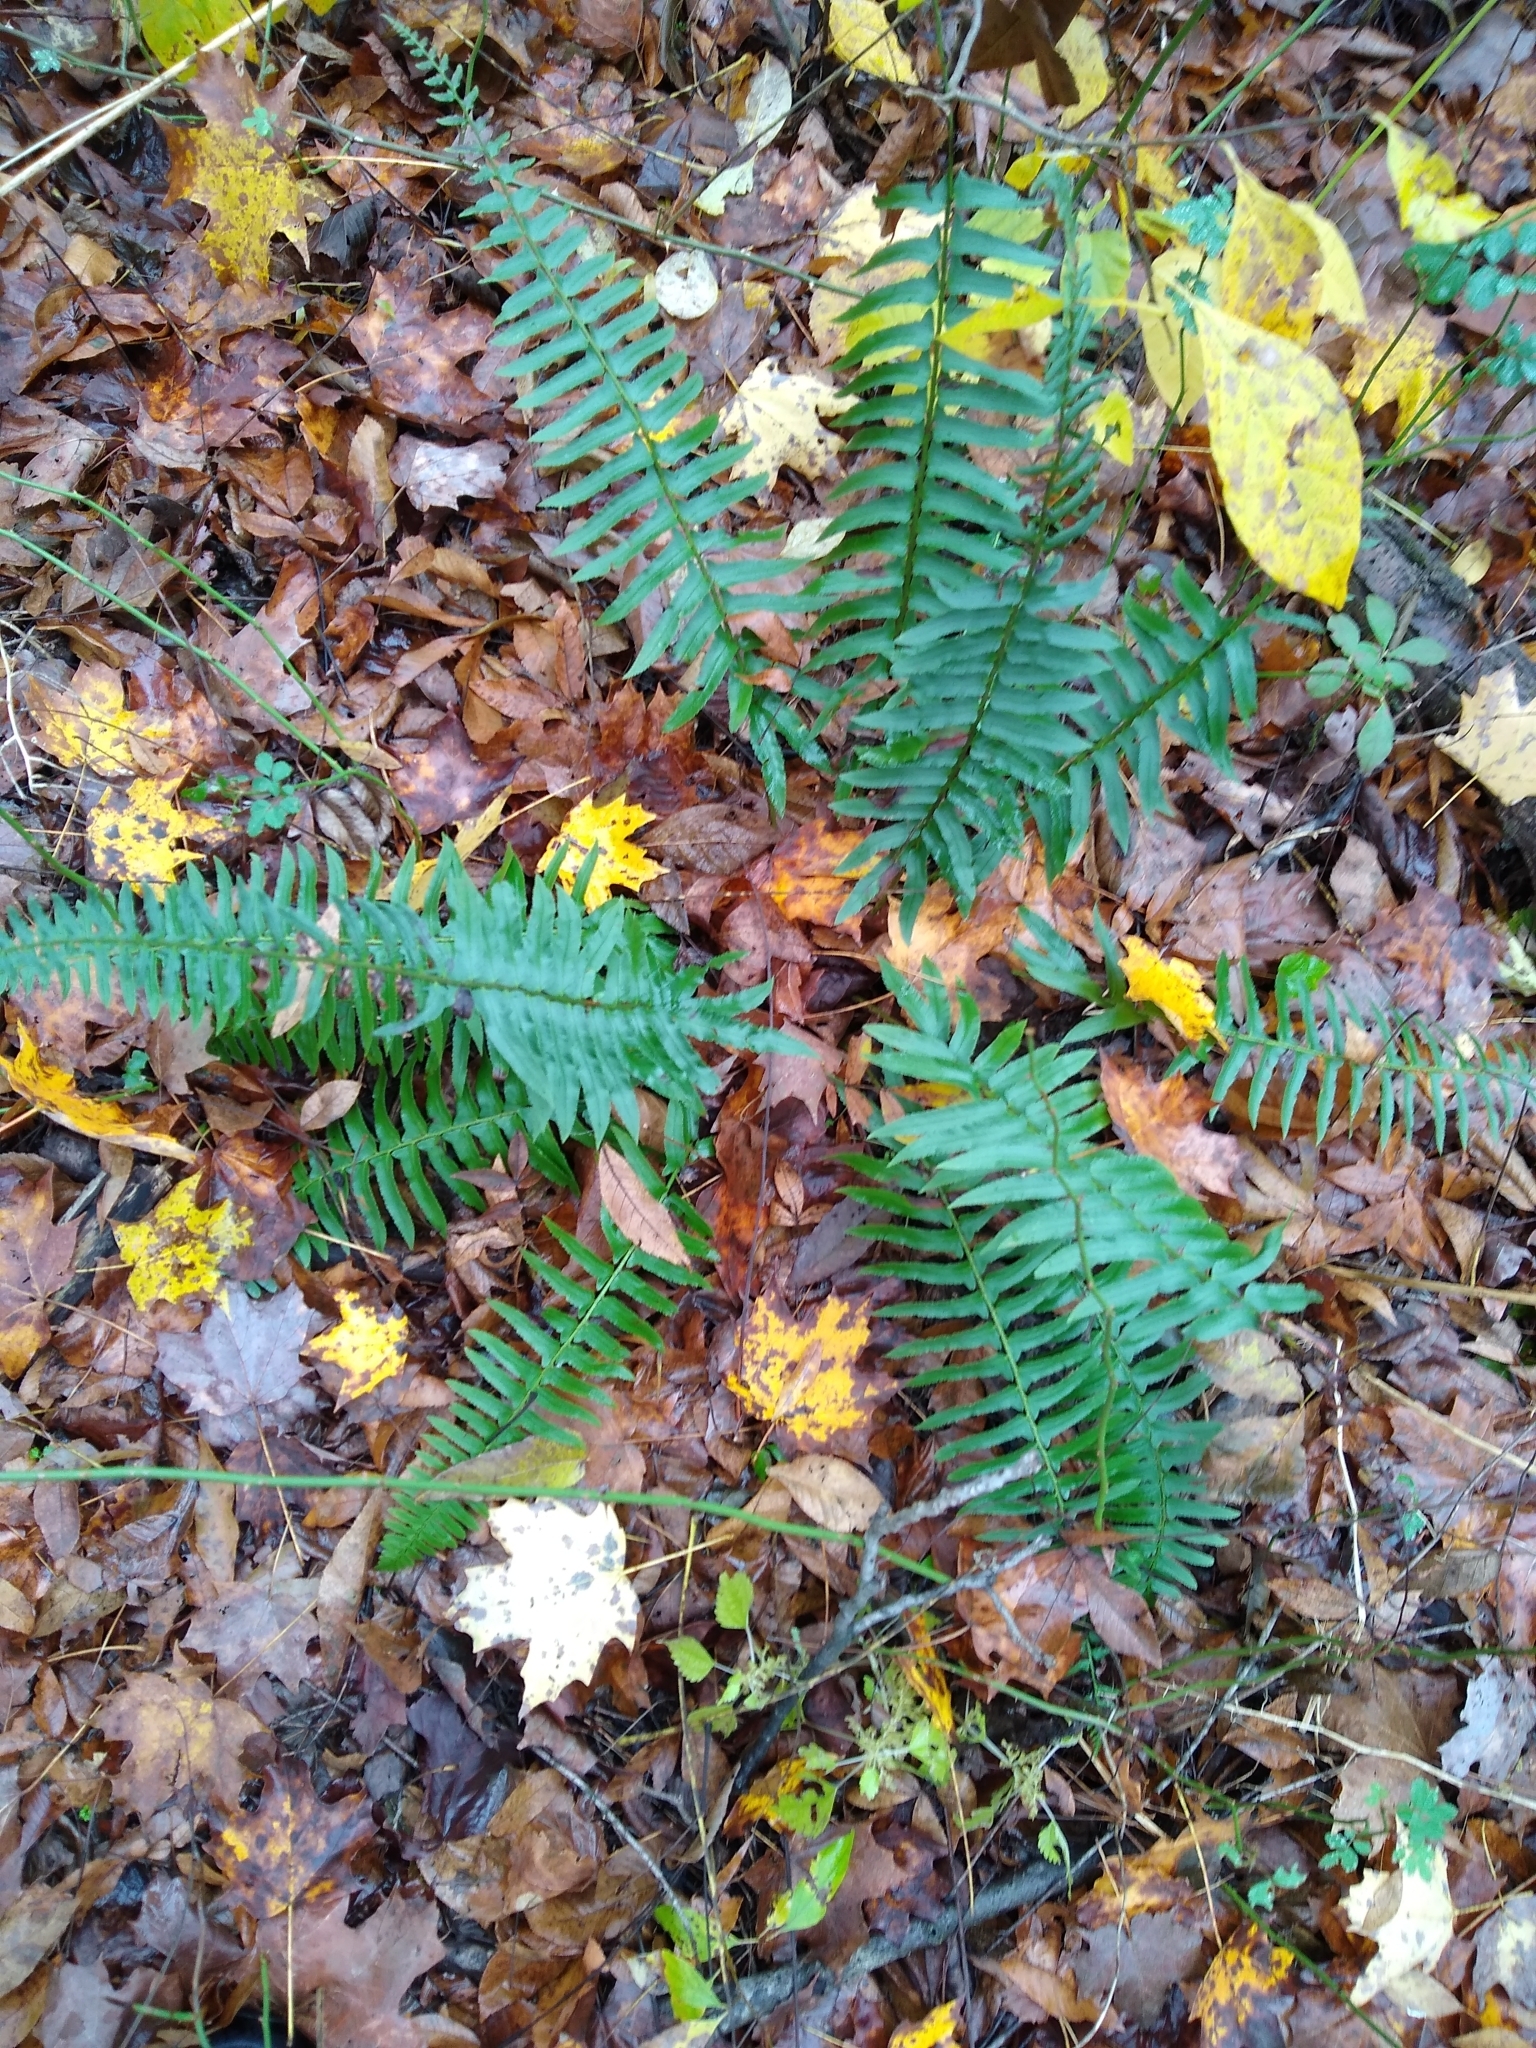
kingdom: Plantae
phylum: Tracheophyta
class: Polypodiopsida
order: Polypodiales
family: Dryopteridaceae
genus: Polystichum
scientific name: Polystichum acrostichoides
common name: Christmas fern
